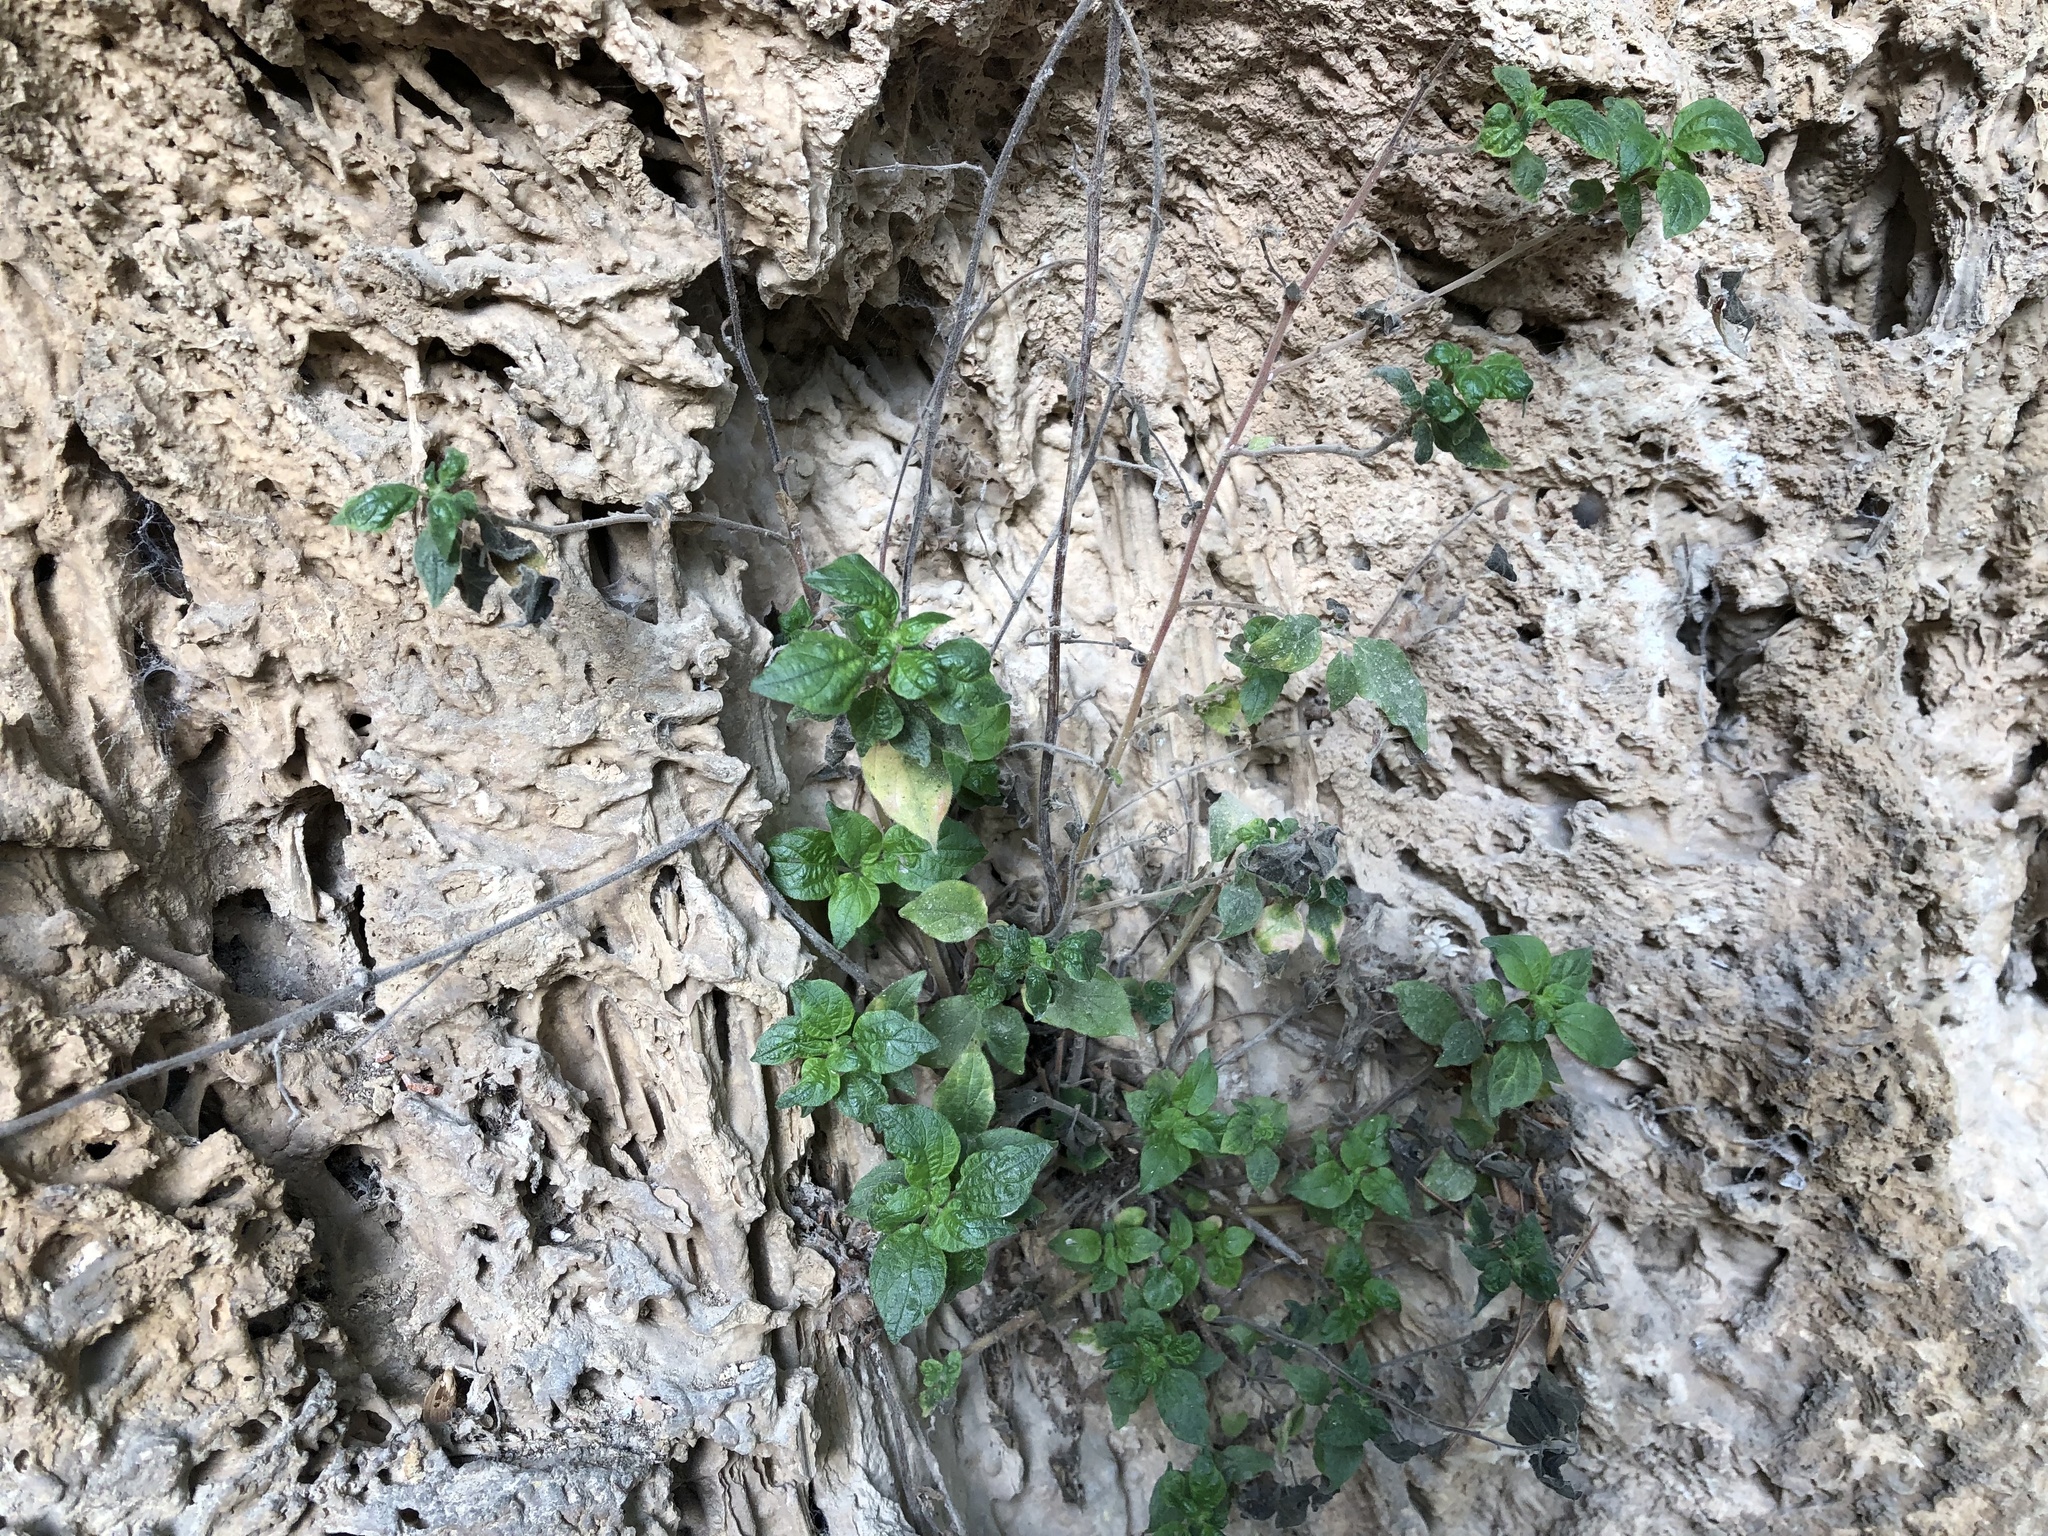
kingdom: Plantae
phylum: Tracheophyta
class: Magnoliopsida
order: Rosales
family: Urticaceae
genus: Parietaria
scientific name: Parietaria judaica
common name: Pellitory-of-the-wall
